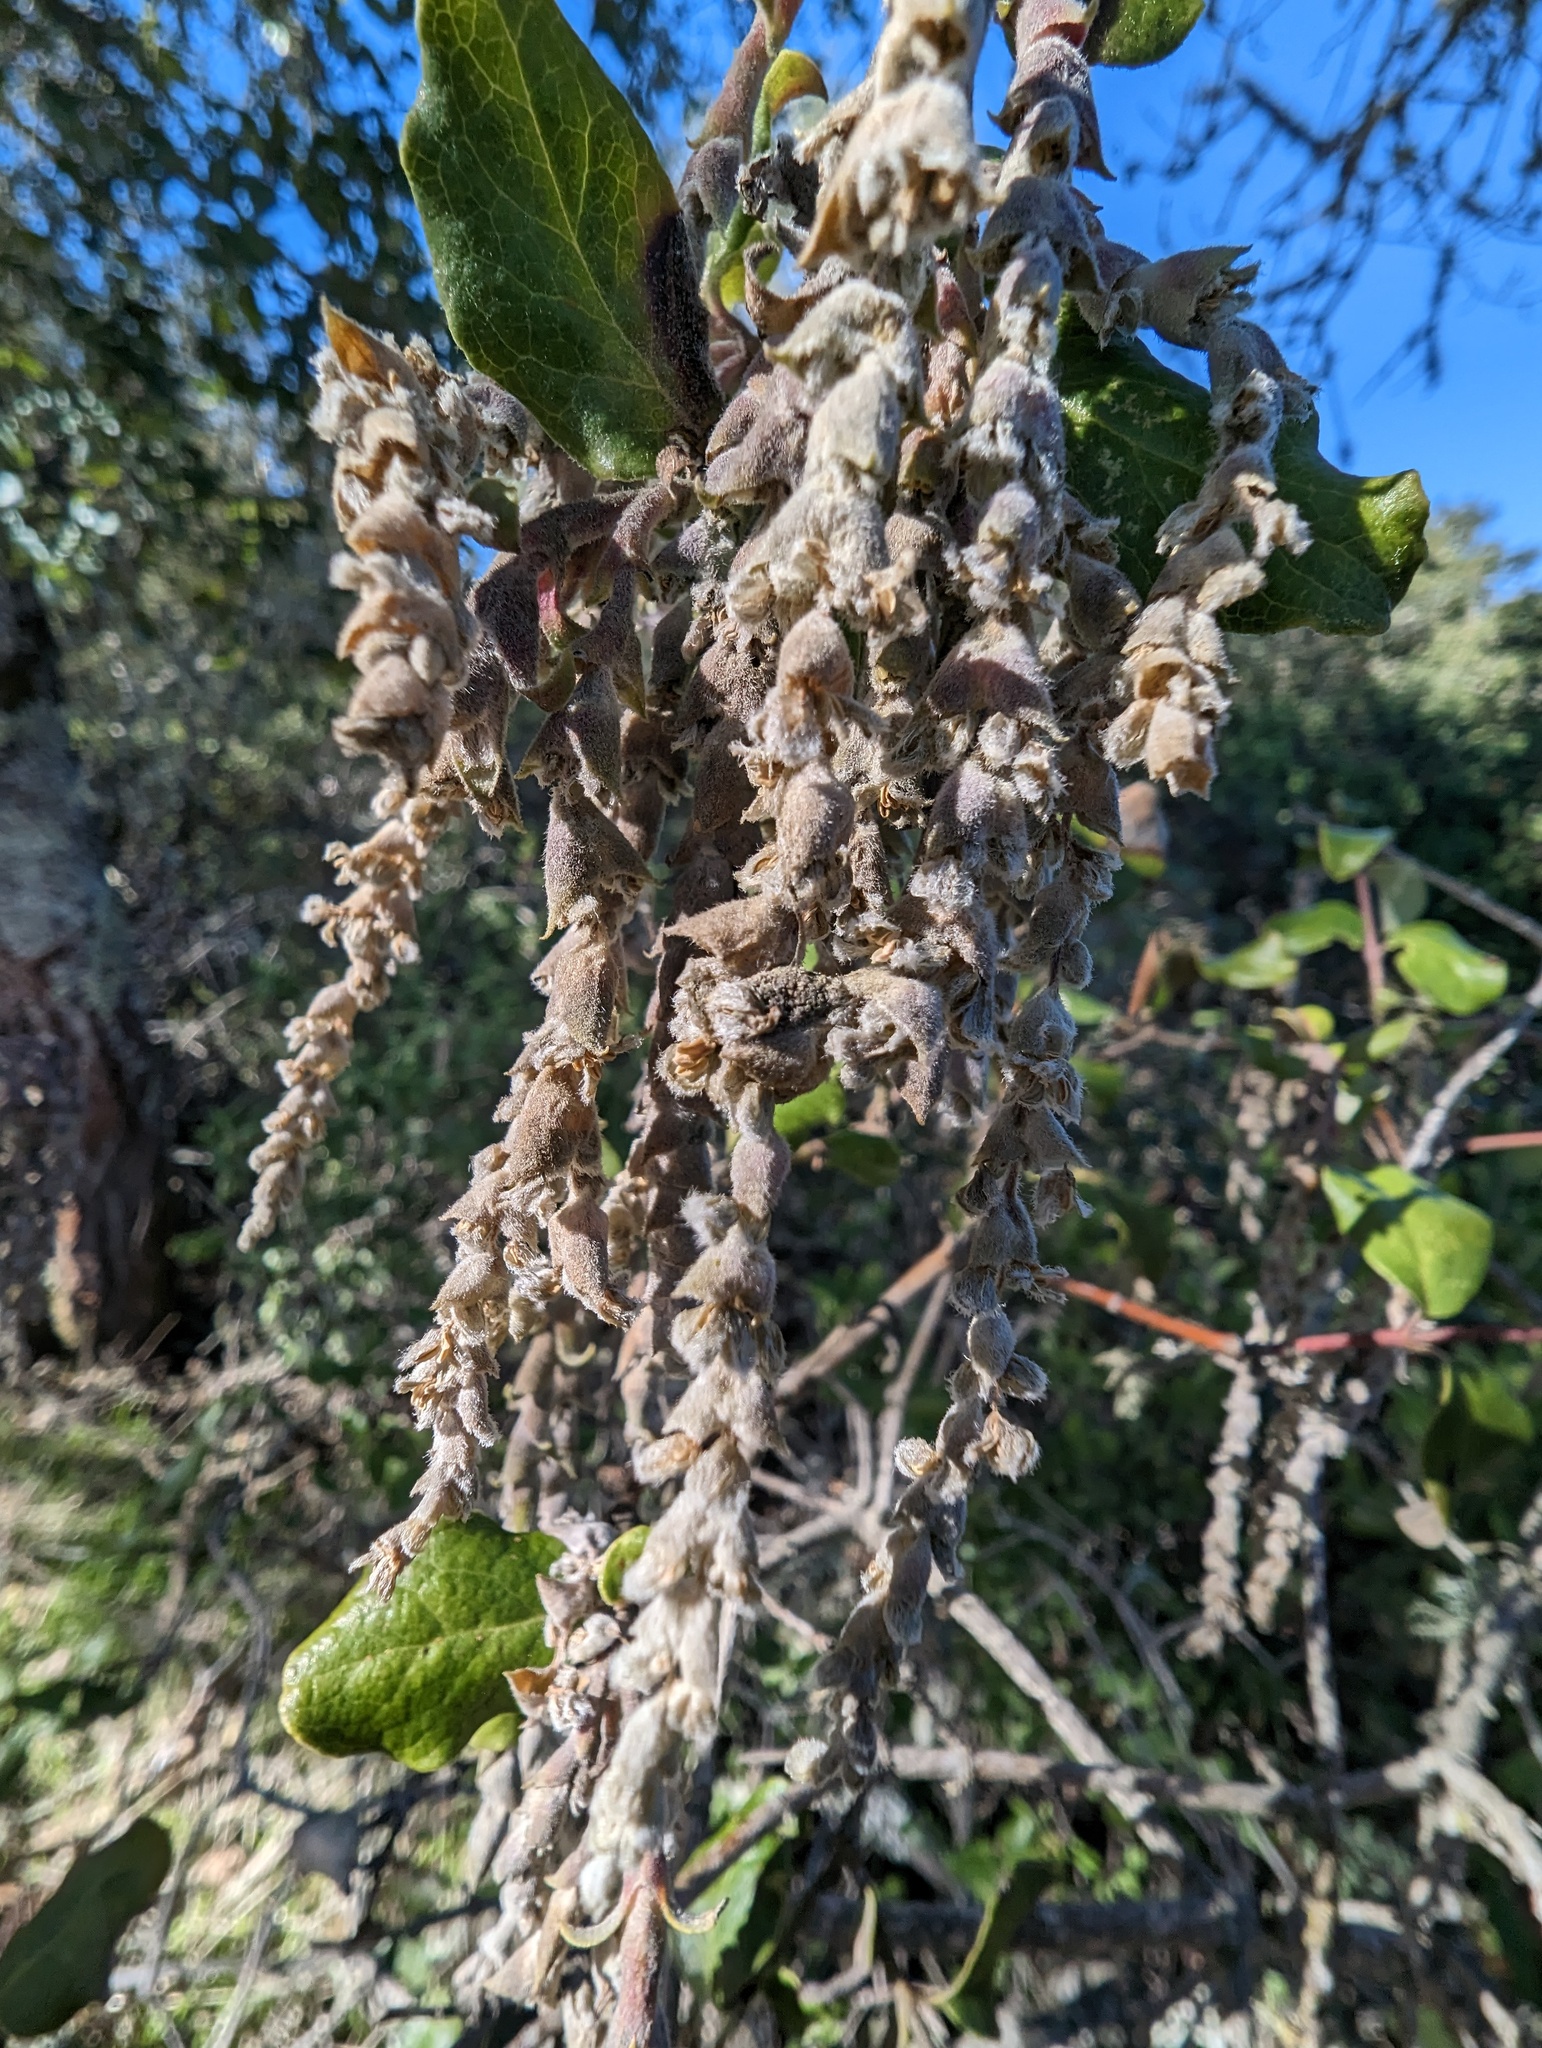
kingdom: Plantae
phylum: Tracheophyta
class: Magnoliopsida
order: Garryales
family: Garryaceae
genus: Garrya
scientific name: Garrya elliptica
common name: Silk-tassel
